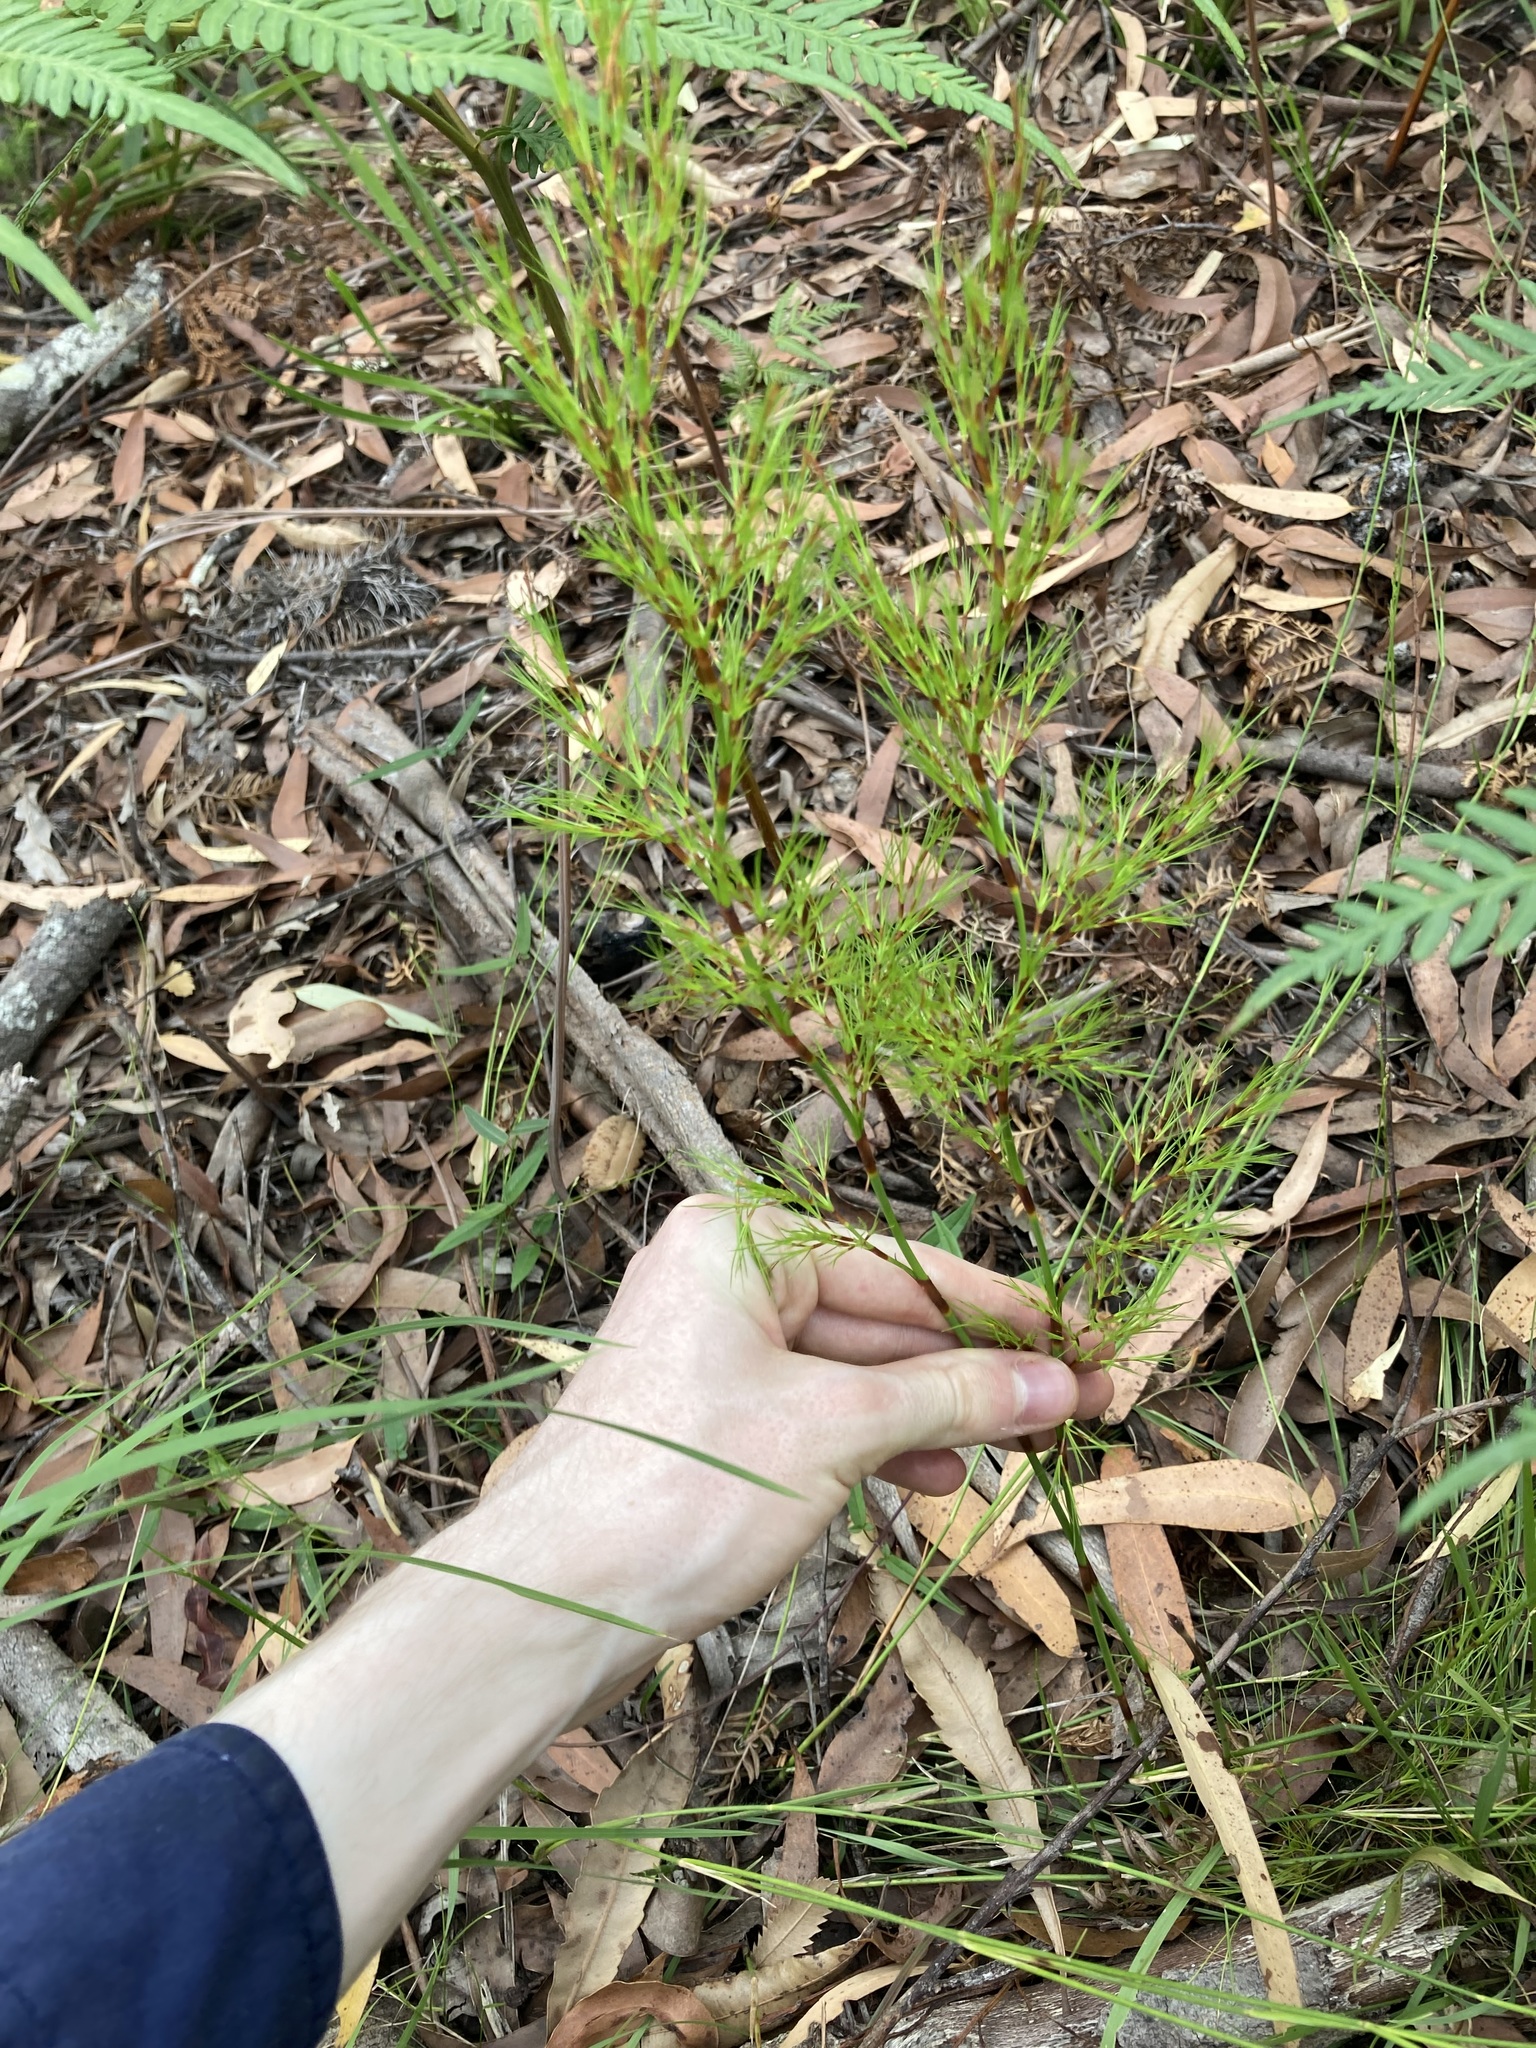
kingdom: Plantae
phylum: Tracheophyta
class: Liliopsida
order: Poales
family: Restionaceae
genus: Baloskion
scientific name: Baloskion tetraphyllum
